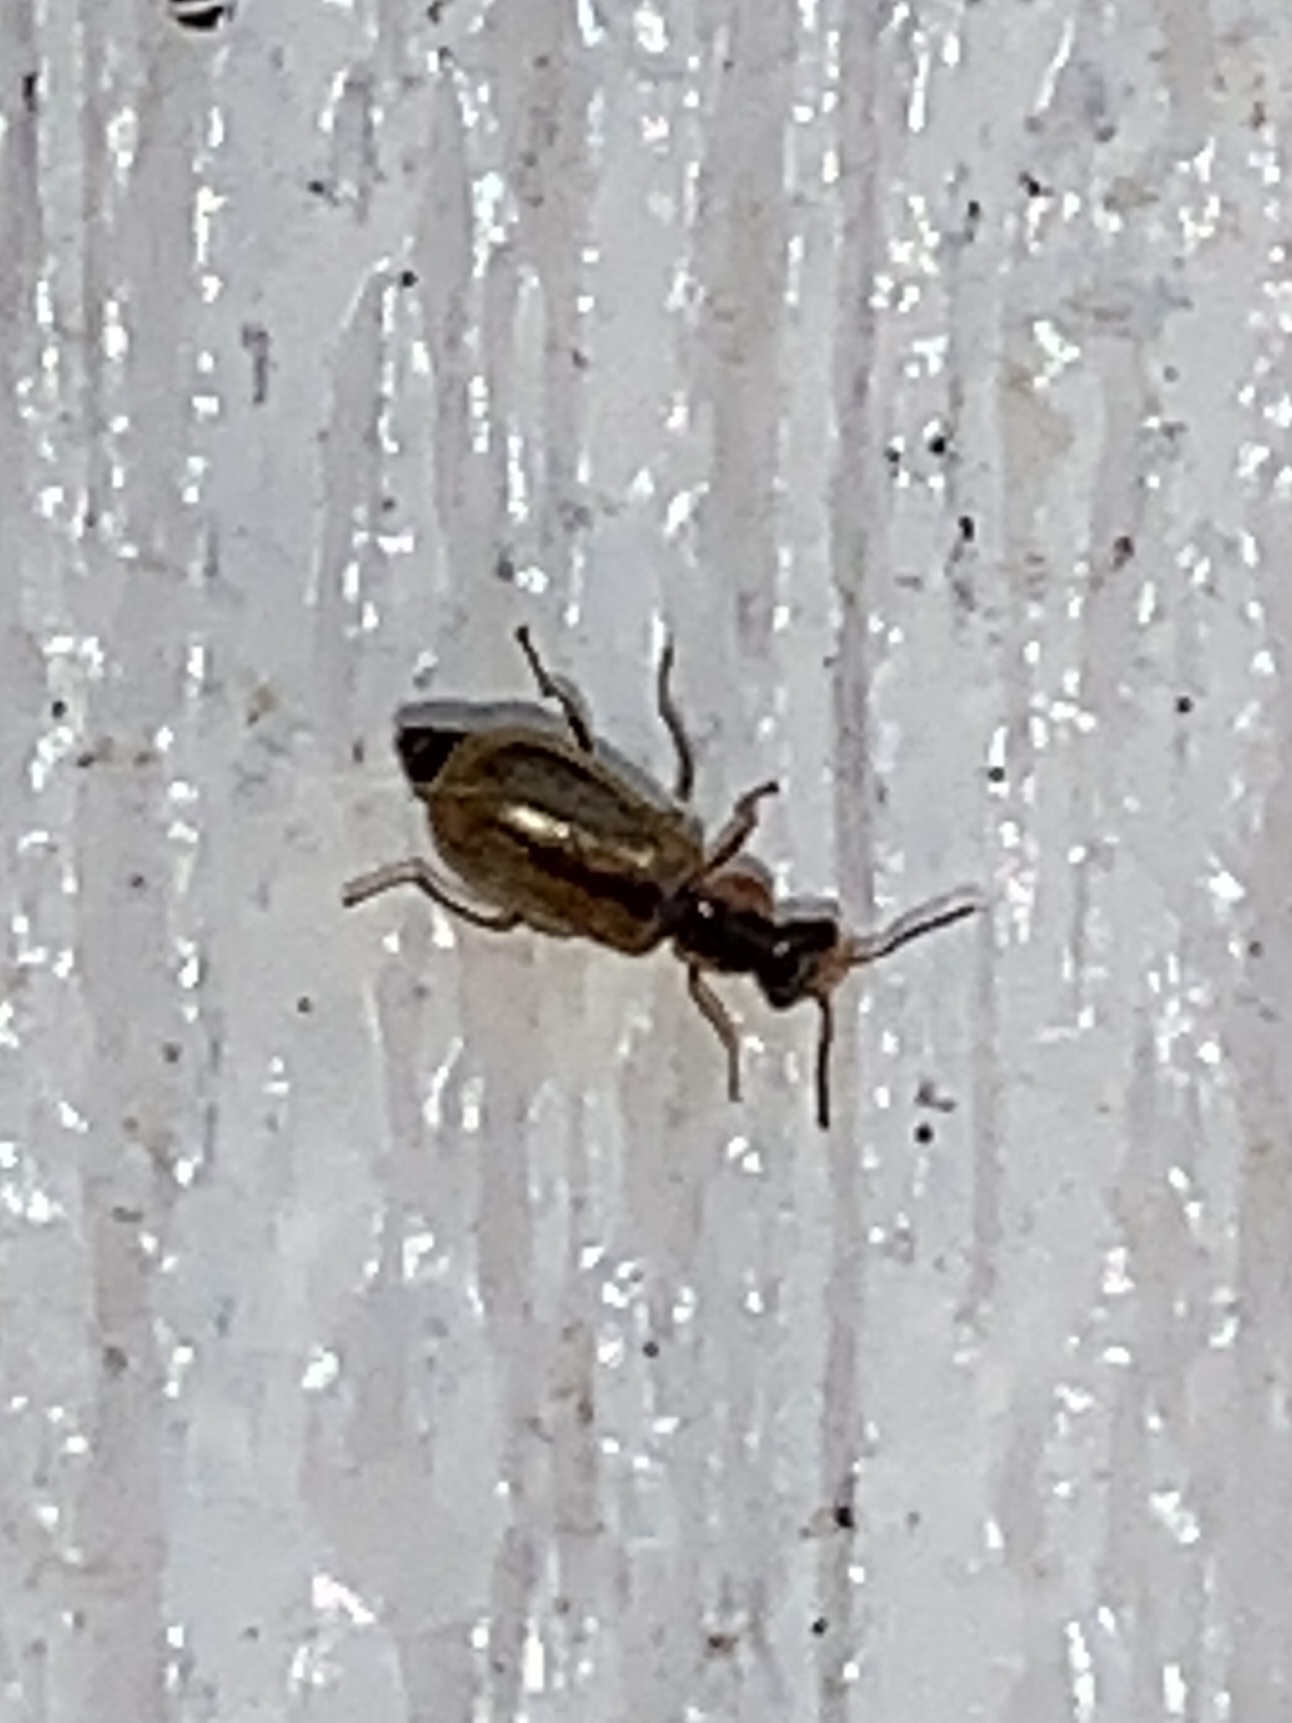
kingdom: Animalia
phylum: Arthropoda
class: Insecta
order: Coleoptera
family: Malachiidae
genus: Attalus
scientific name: Attalus
